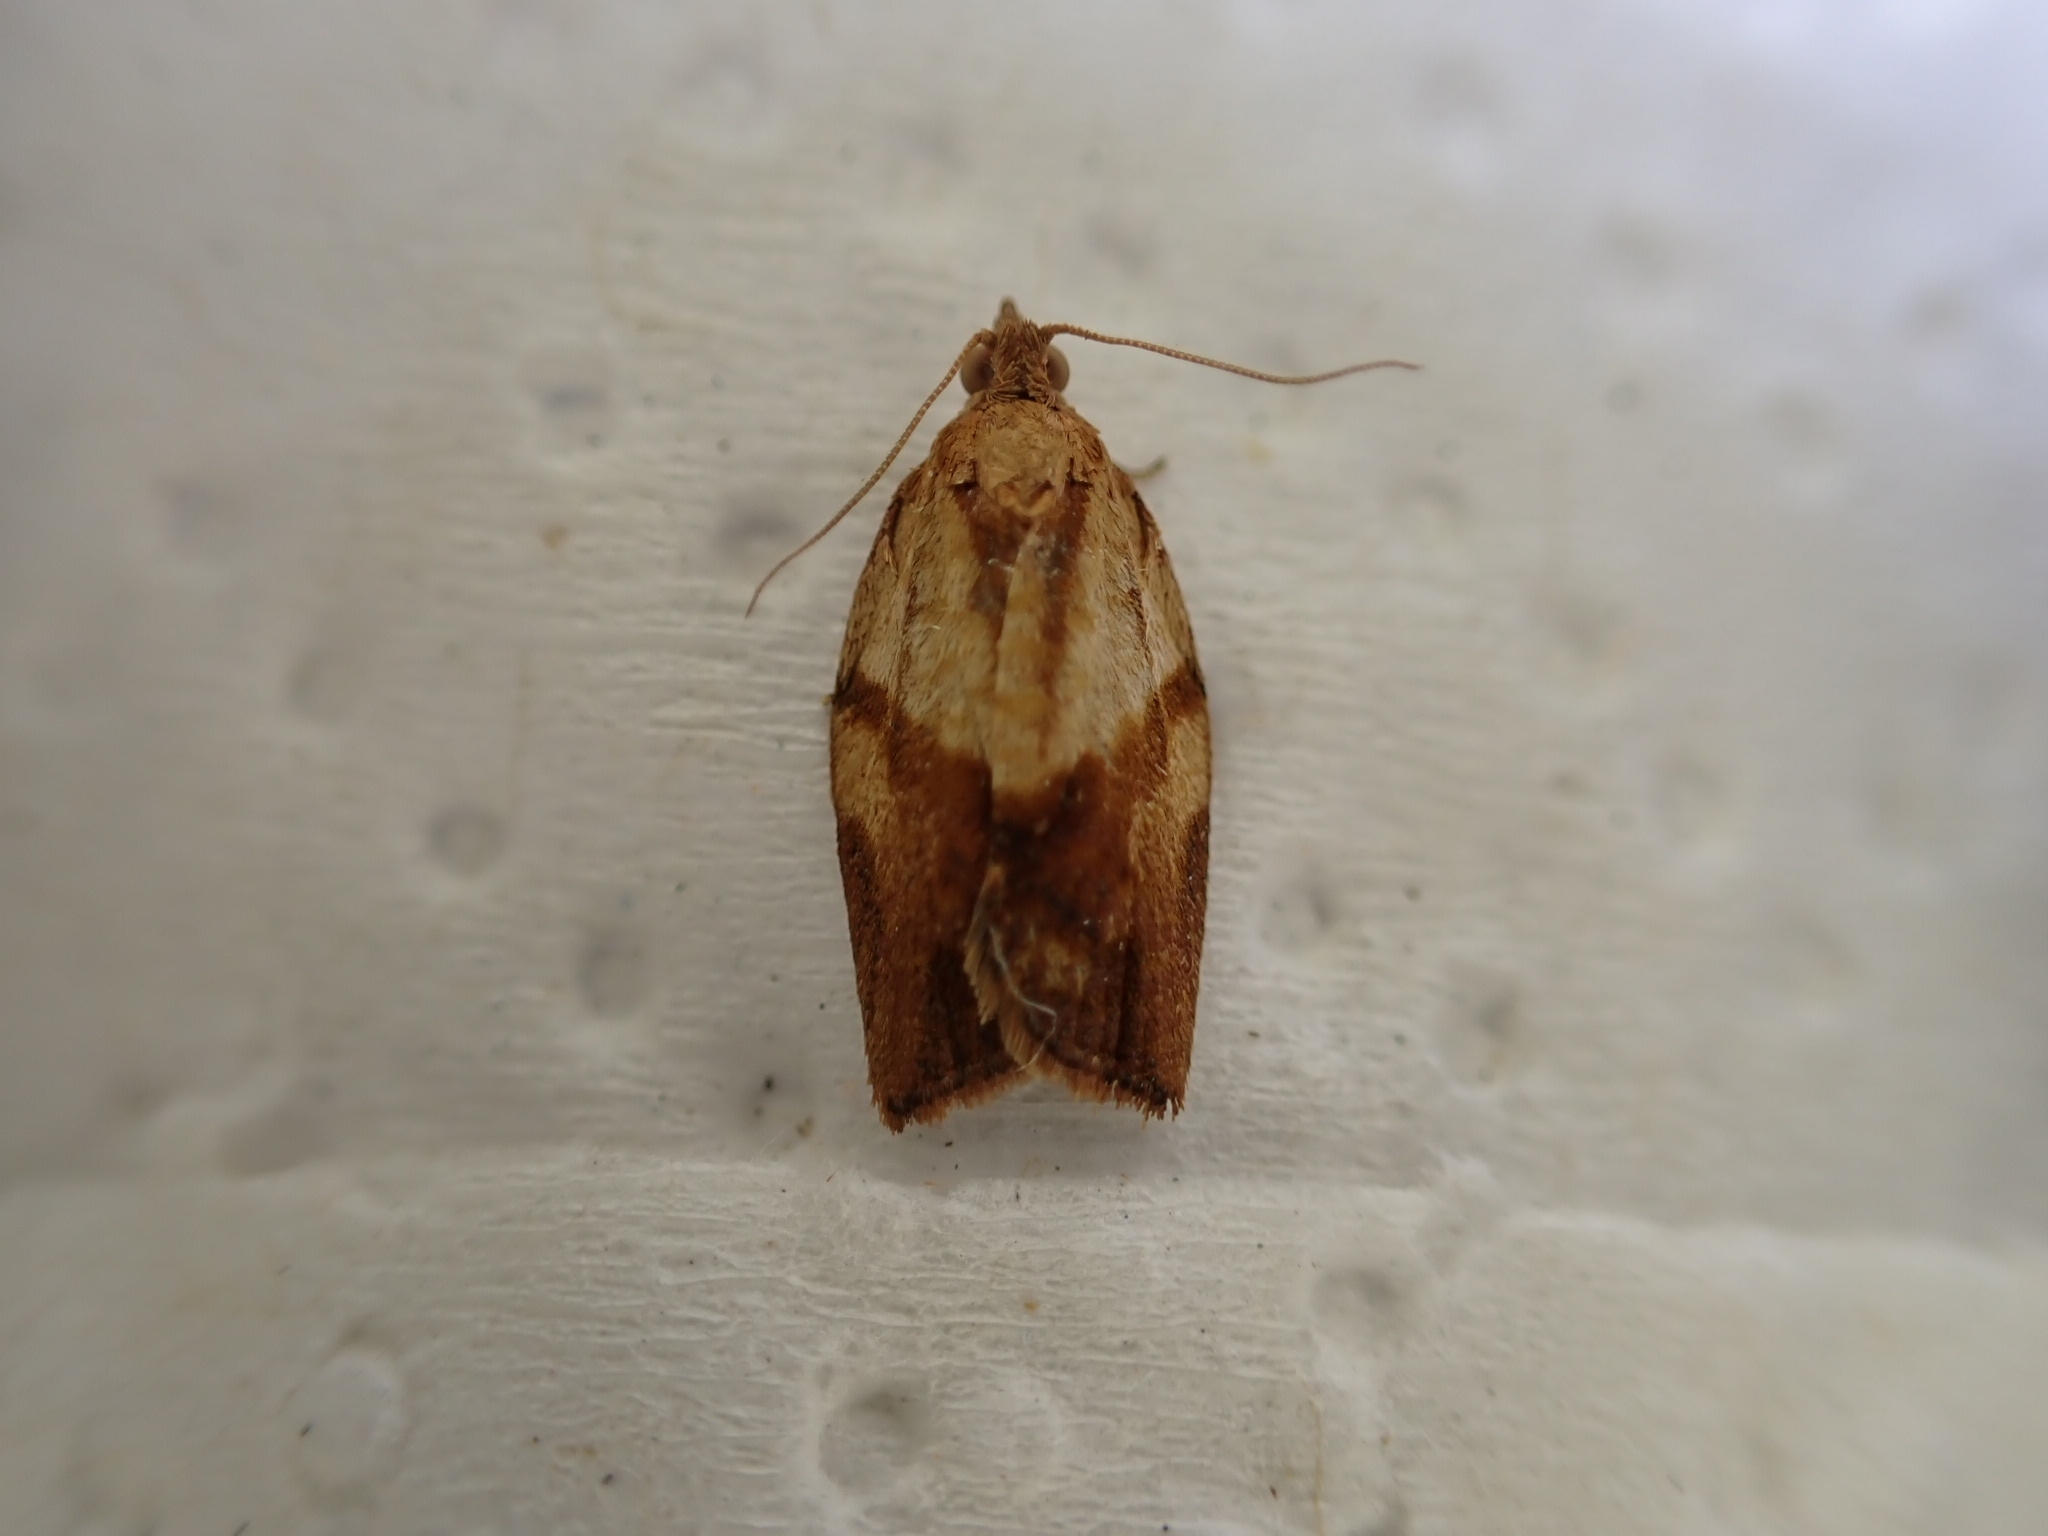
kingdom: Animalia
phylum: Arthropoda
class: Insecta
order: Lepidoptera
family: Tortricidae
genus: Epiphyas
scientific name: Epiphyas postvittana
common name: Light brown apple moth
